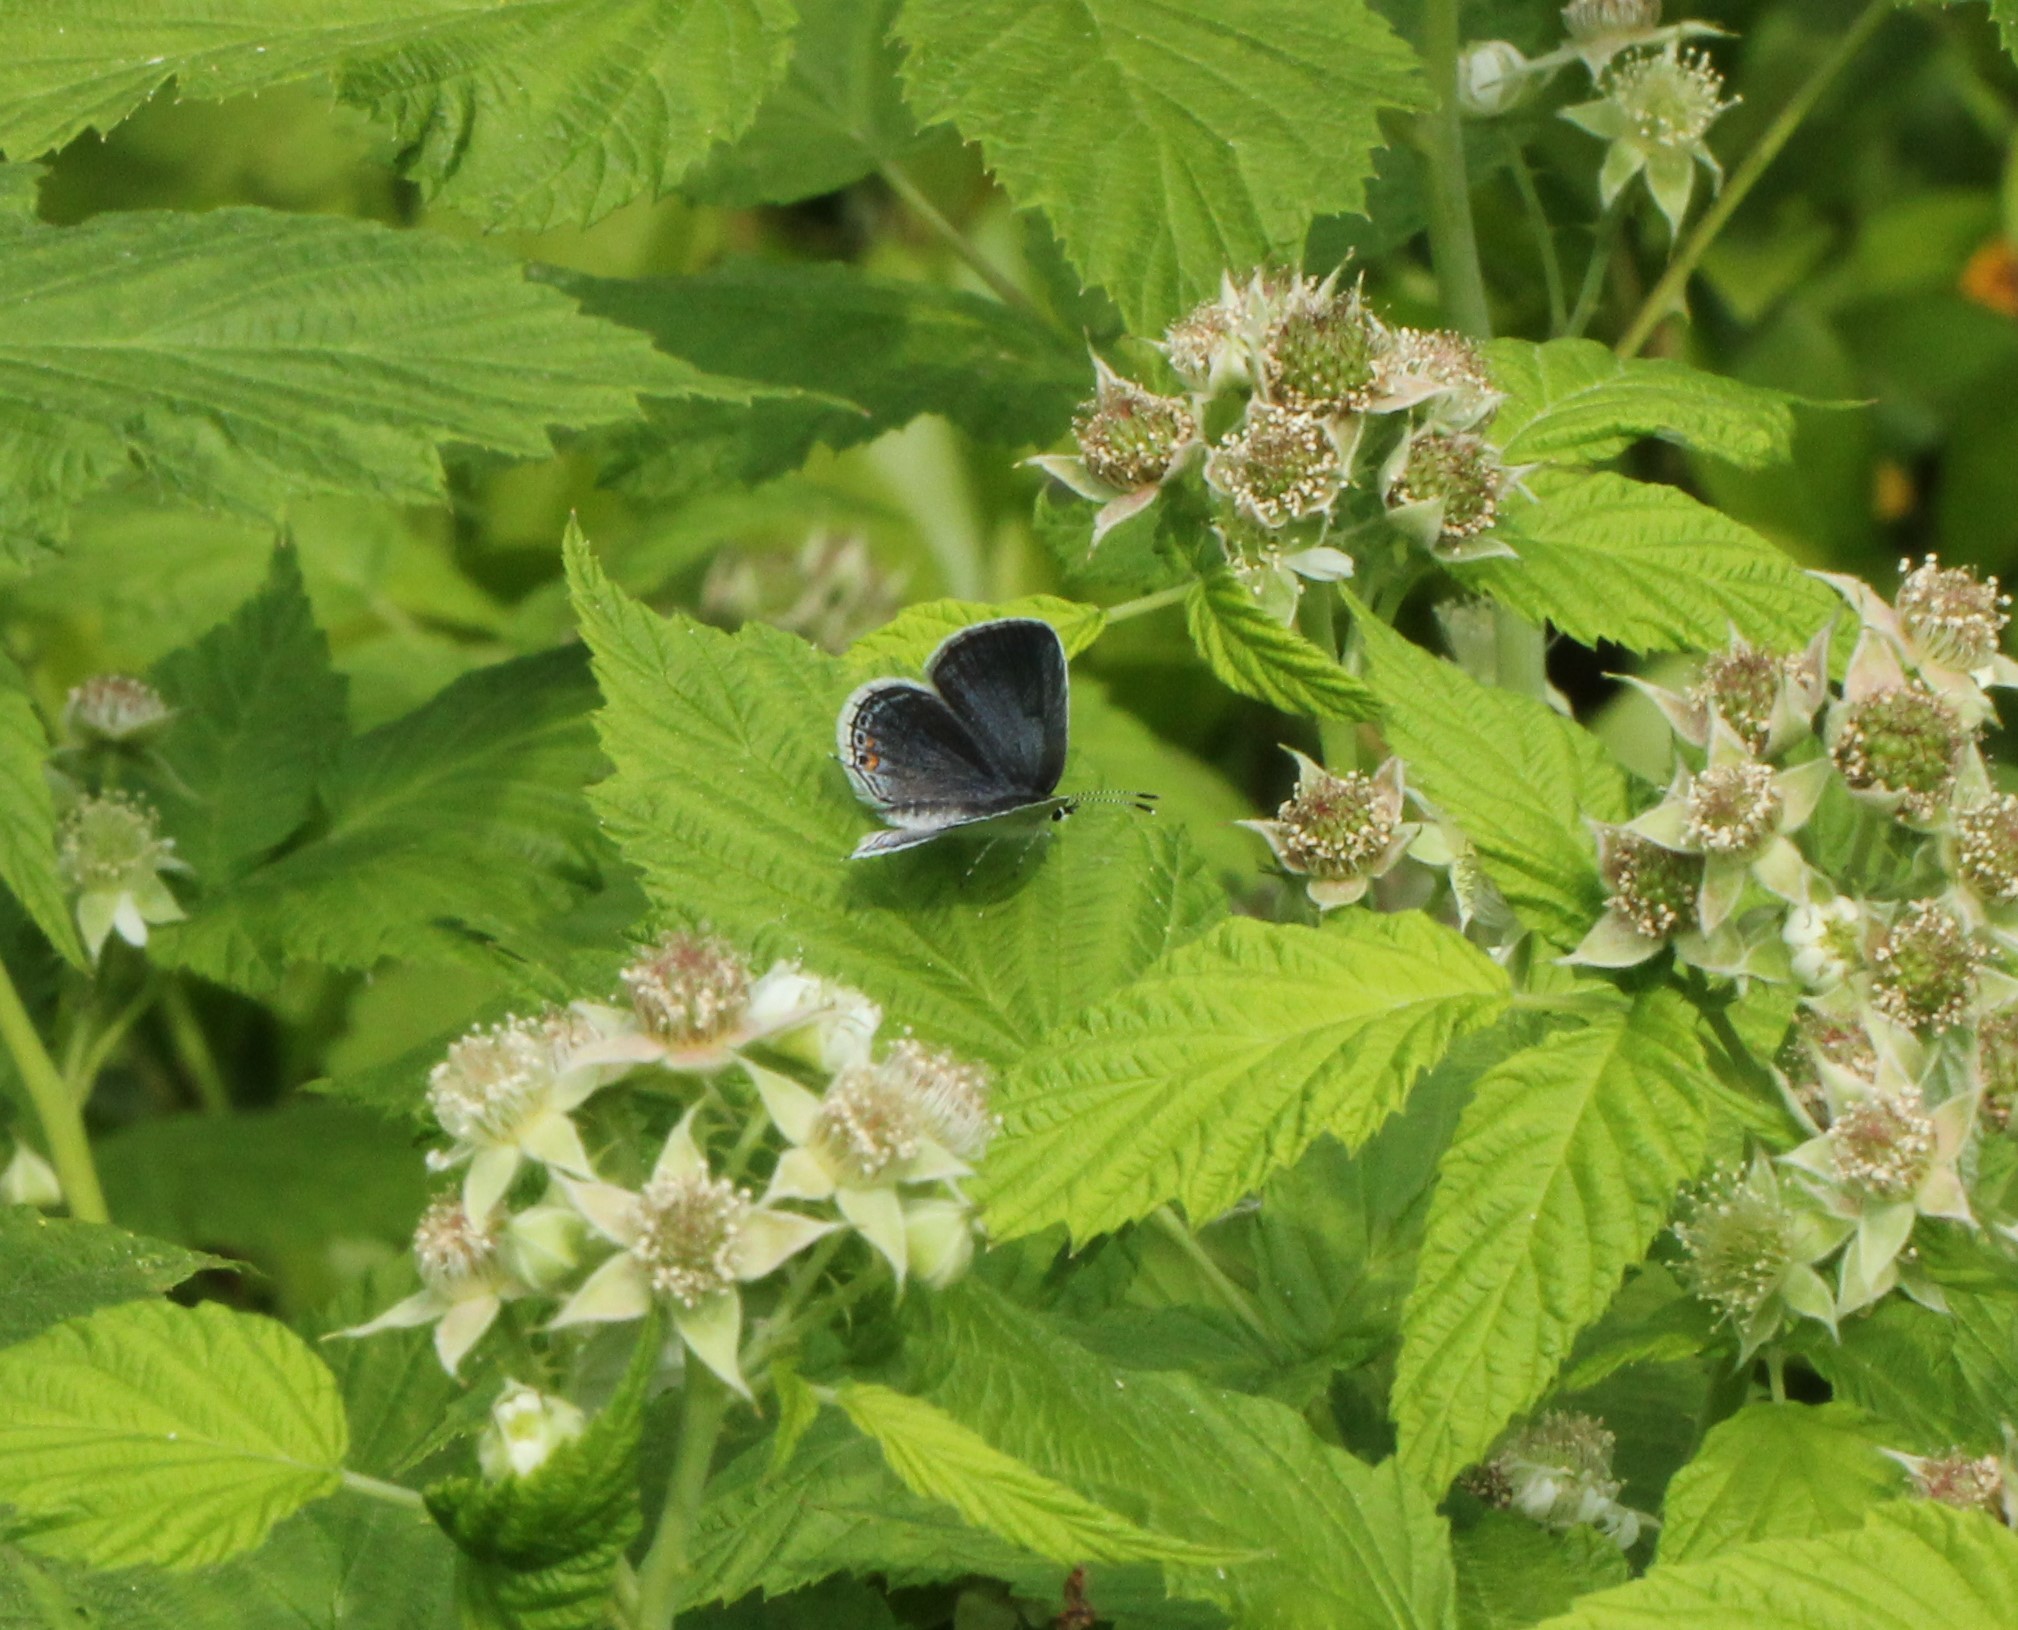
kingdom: Animalia
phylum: Arthropoda
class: Insecta
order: Lepidoptera
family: Lycaenidae
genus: Elkalyce
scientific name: Elkalyce comyntas
